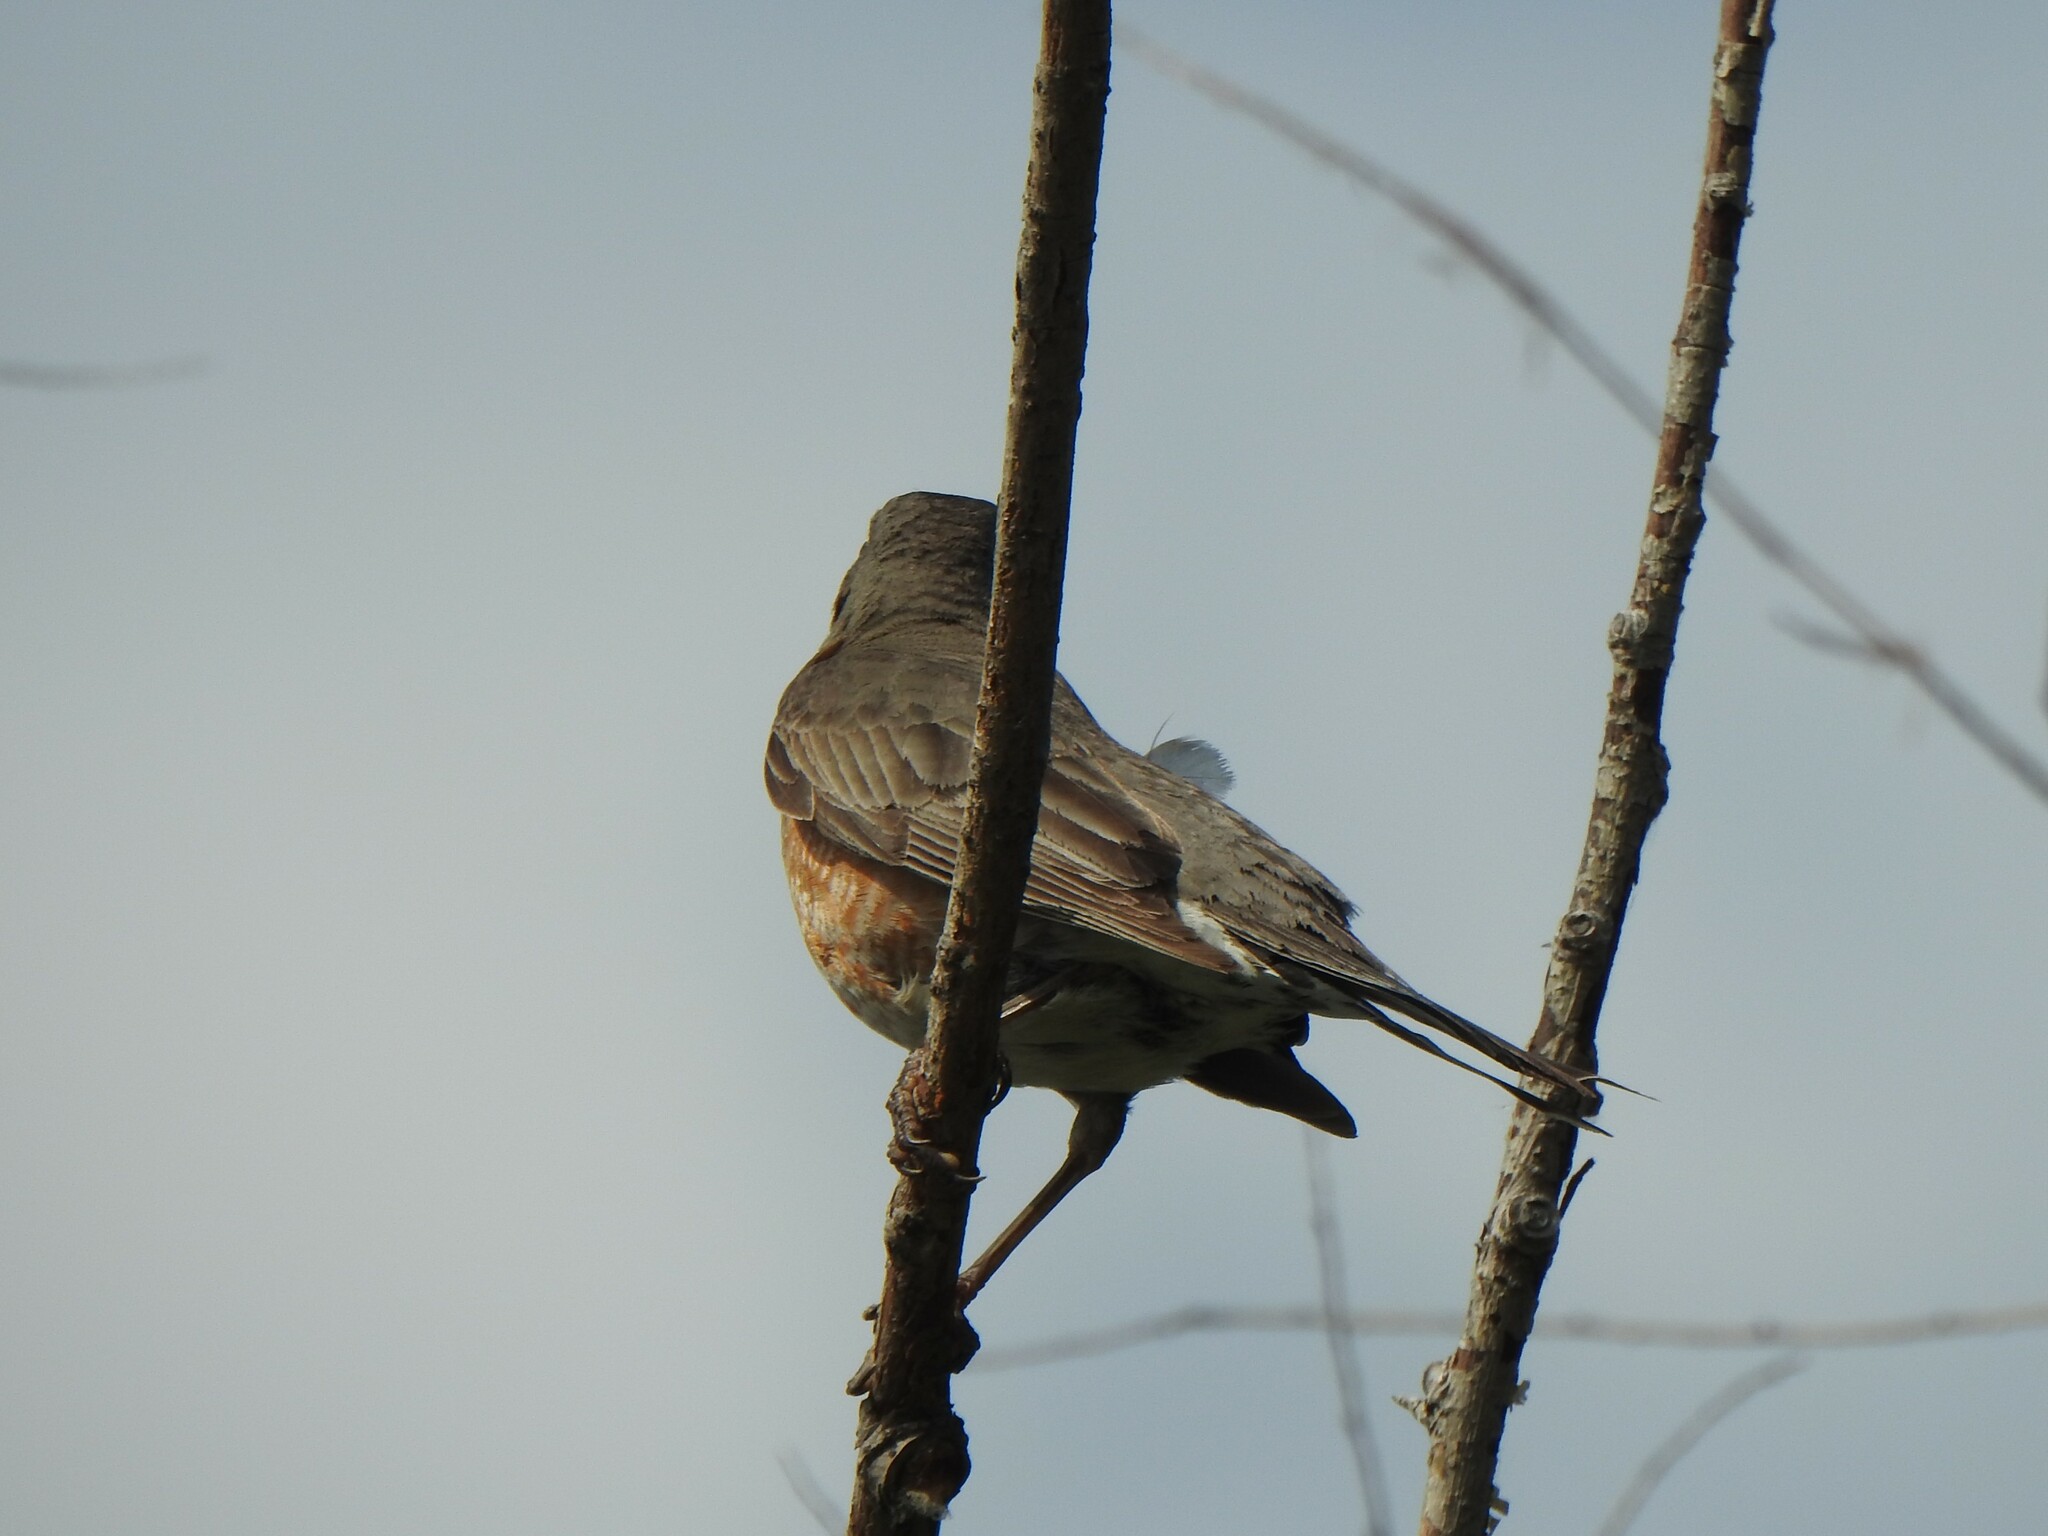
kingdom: Animalia
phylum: Chordata
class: Aves
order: Passeriformes
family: Turdidae
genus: Turdus
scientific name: Turdus migratorius
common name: American robin
